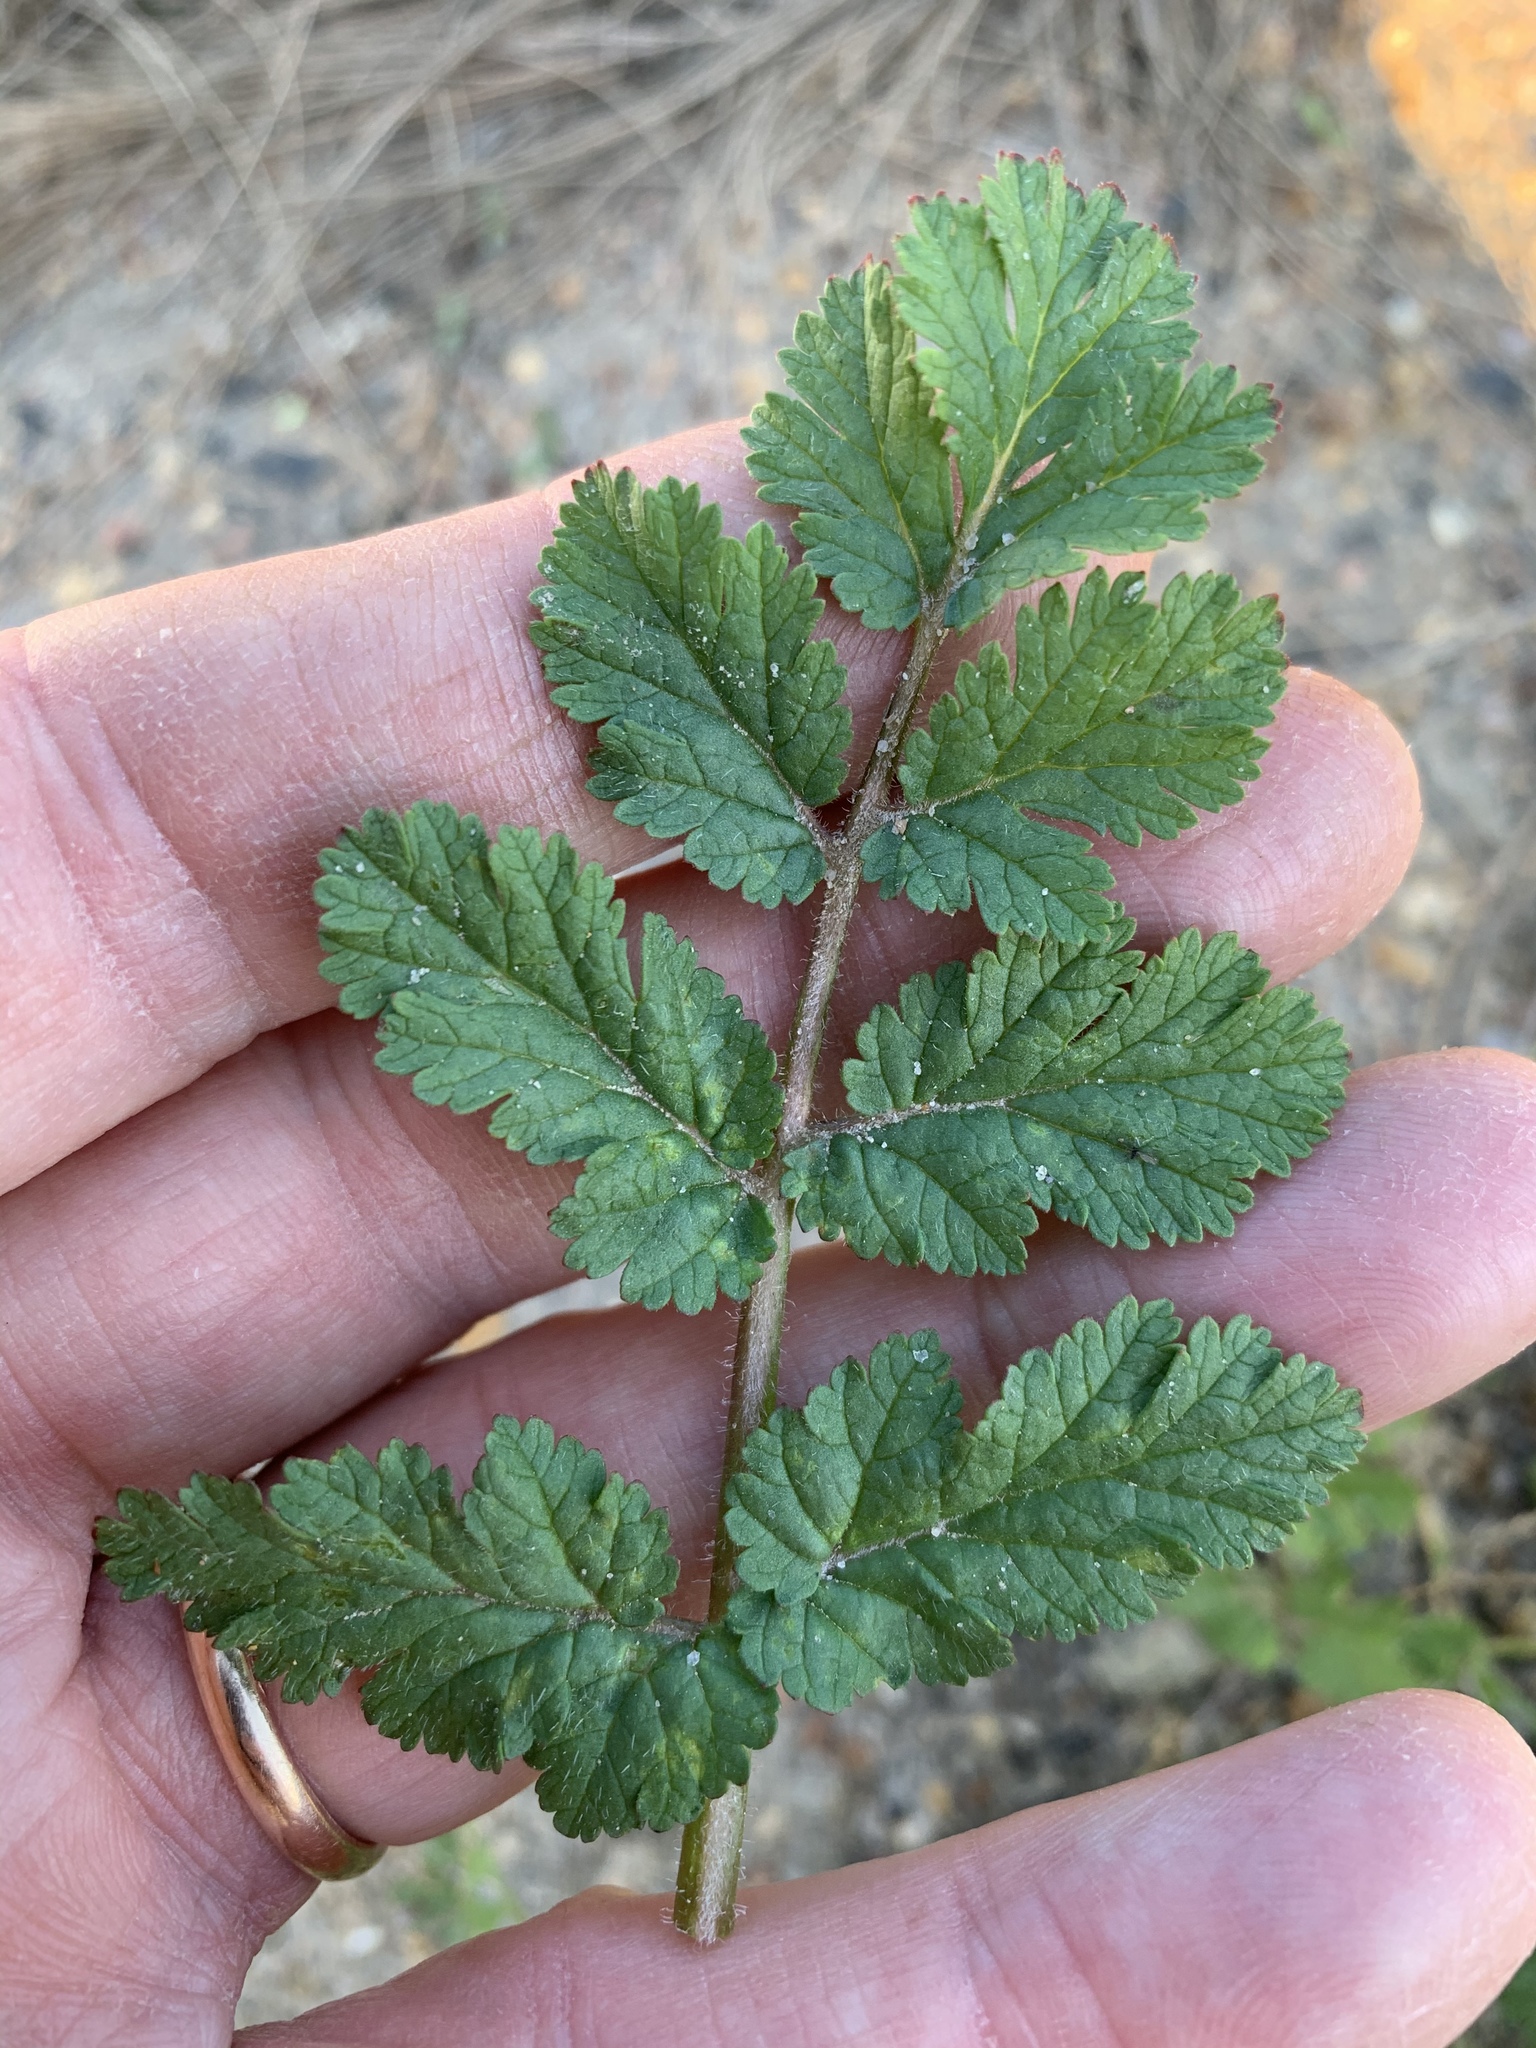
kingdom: Plantae
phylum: Tracheophyta
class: Magnoliopsida
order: Geraniales
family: Geraniaceae
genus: Erodium
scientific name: Erodium moschatum
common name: Musk stork's-bill
